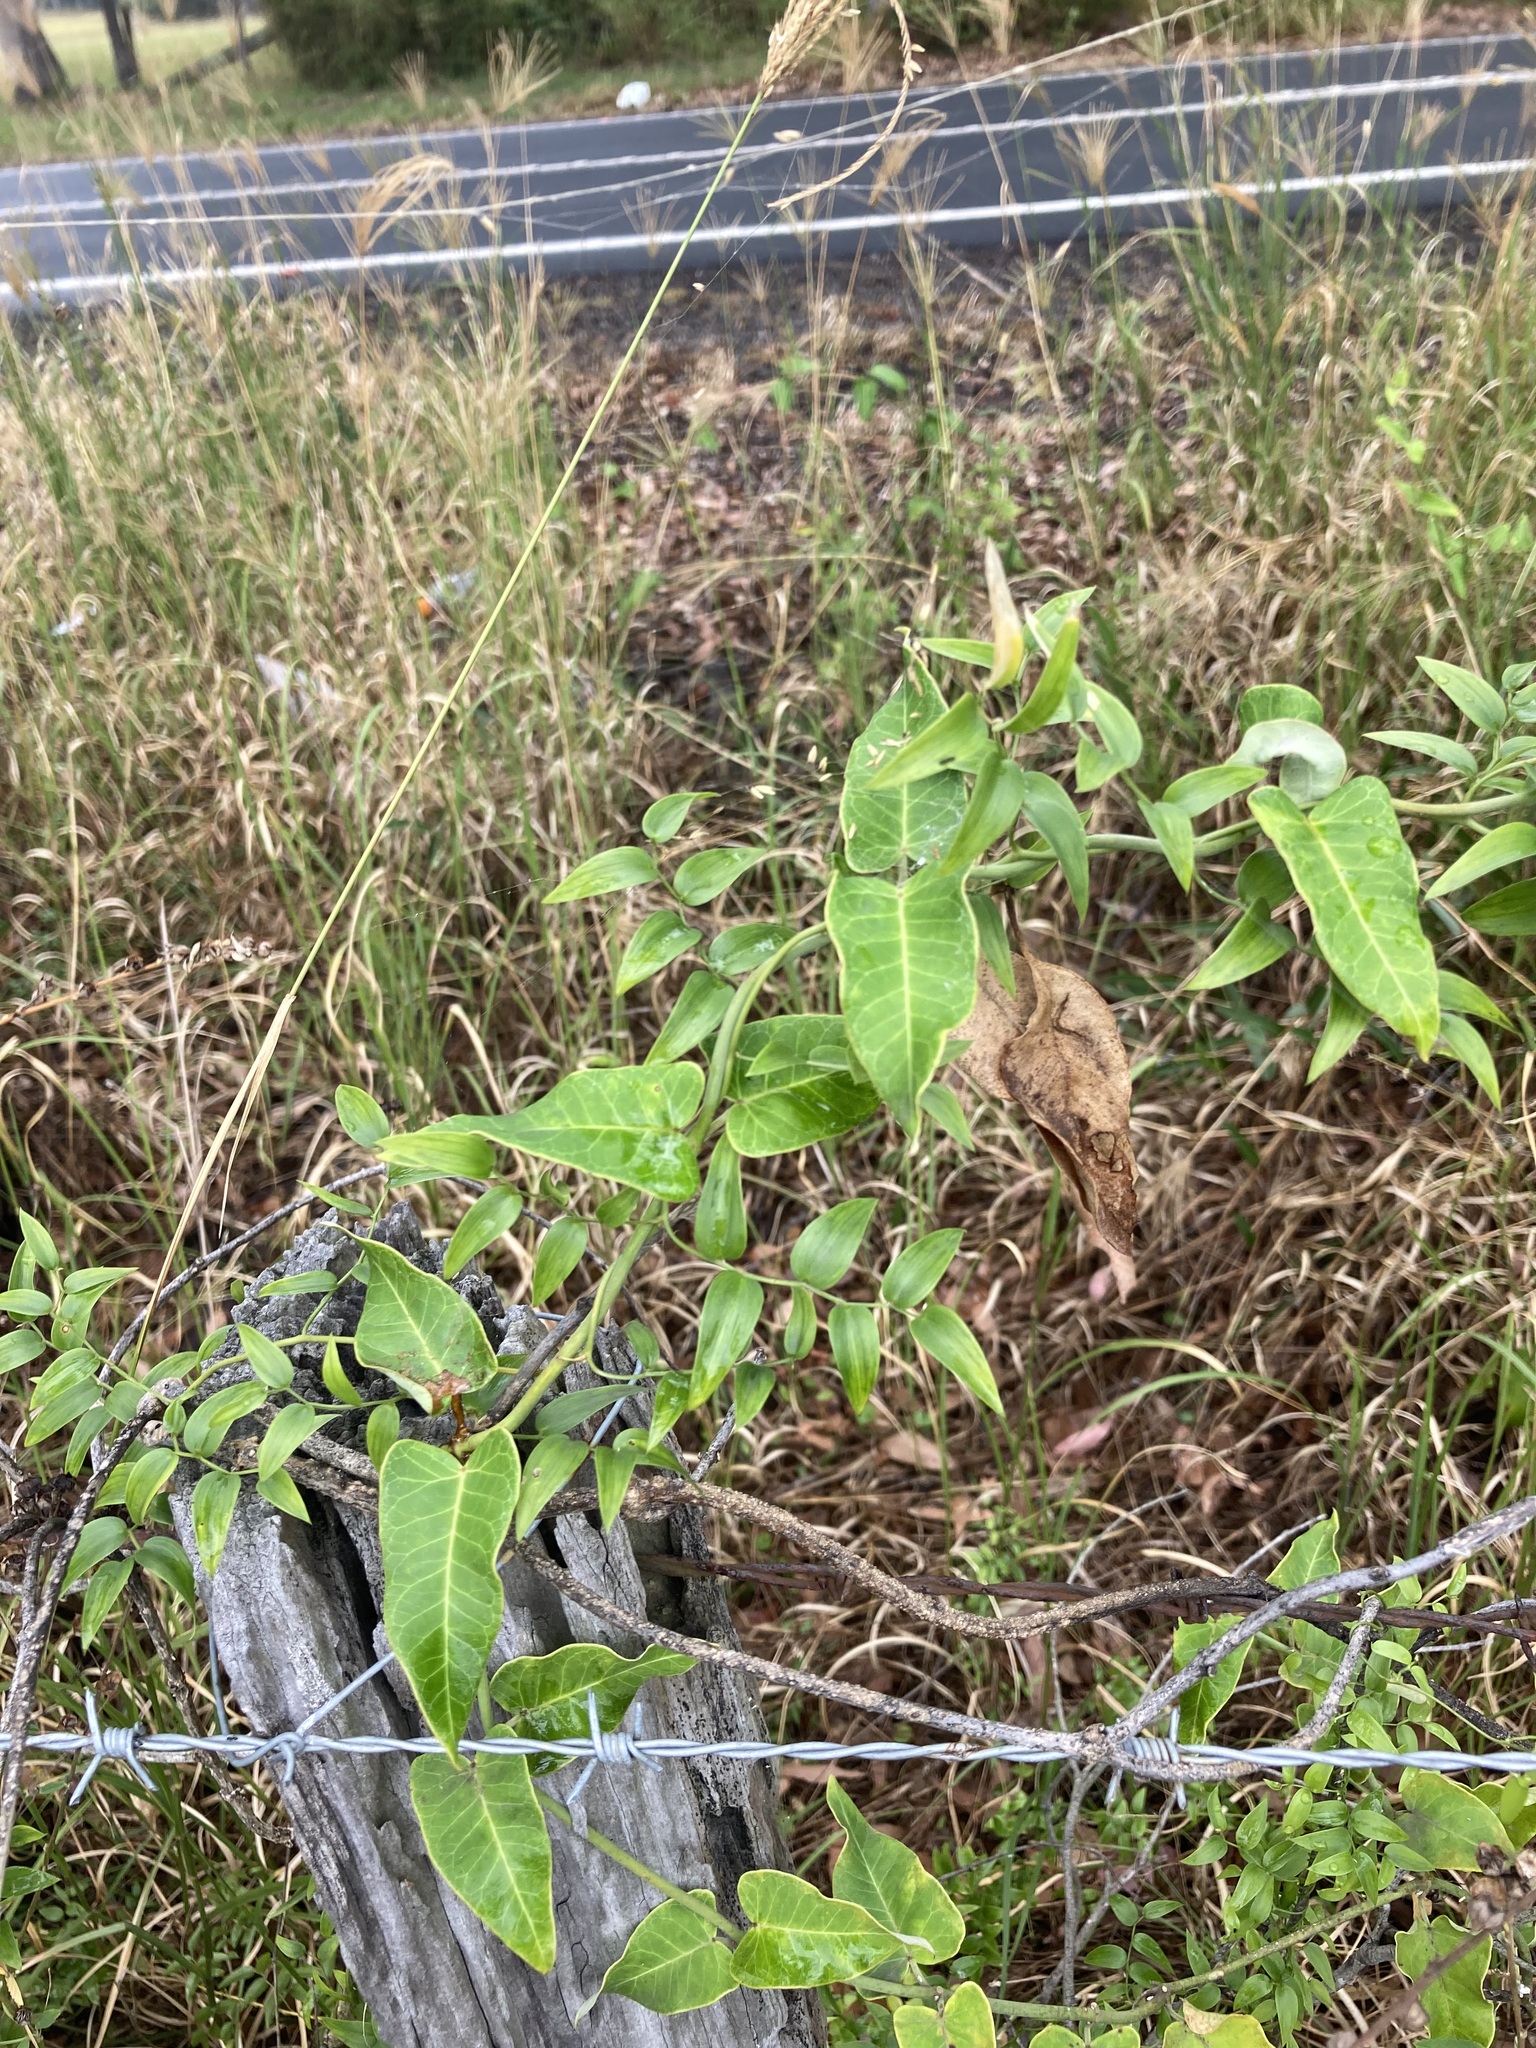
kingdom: Plantae
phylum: Tracheophyta
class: Liliopsida
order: Asparagales
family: Asparagaceae
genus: Asparagus
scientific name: Asparagus asparagoides
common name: African asparagus fern
